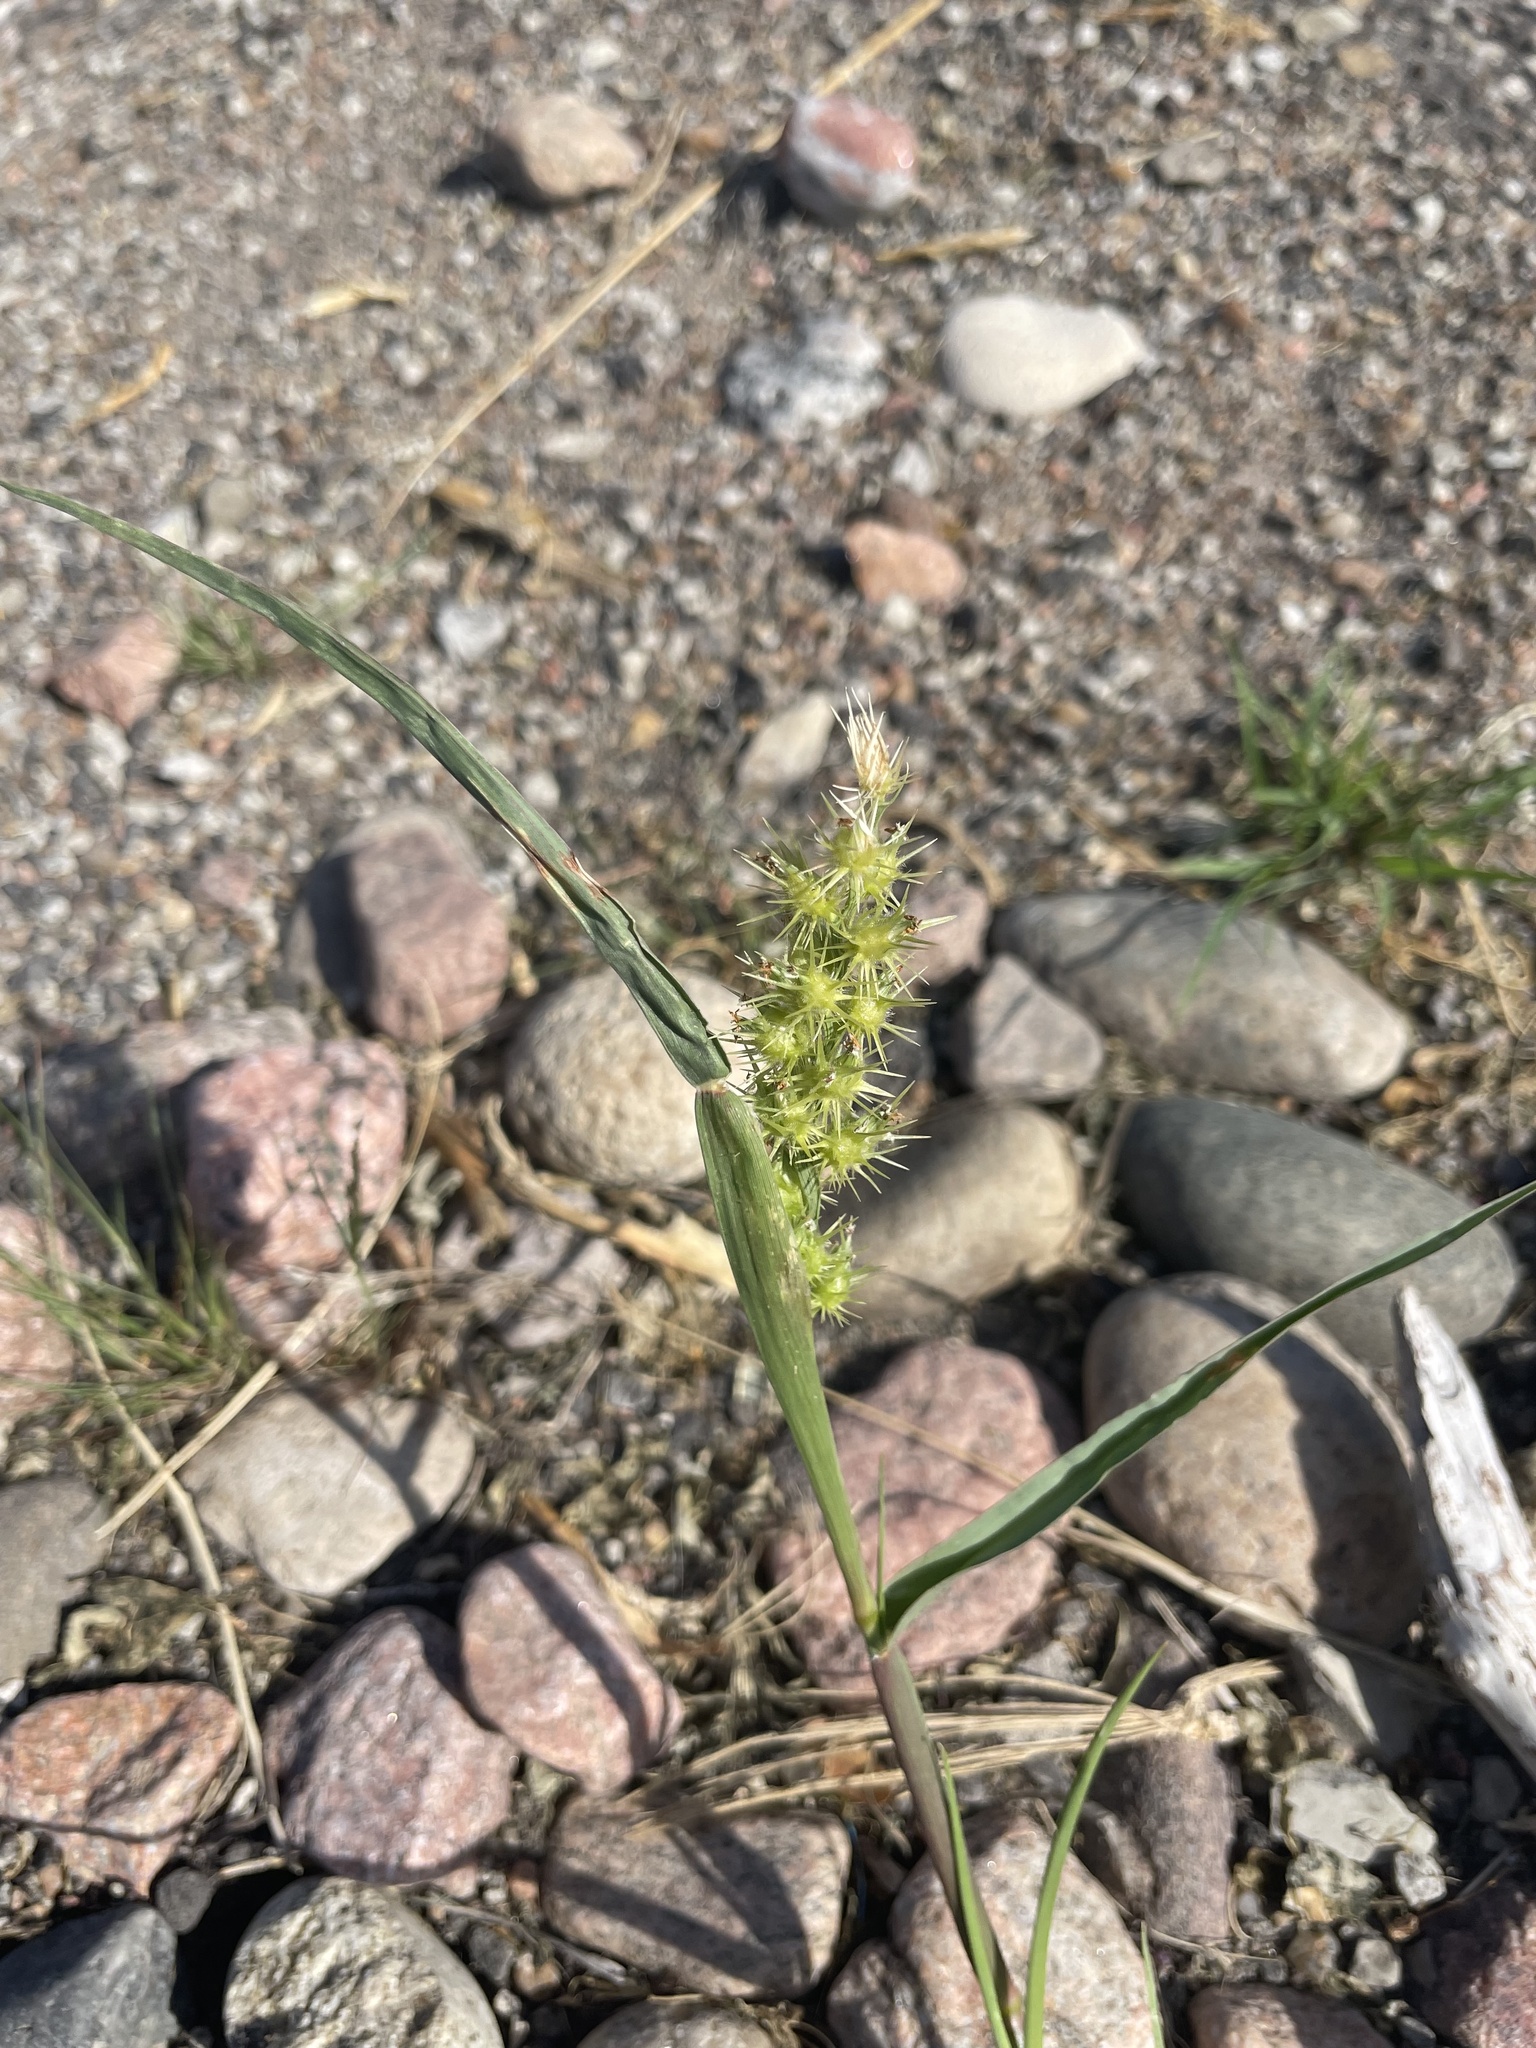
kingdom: Plantae
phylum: Tracheophyta
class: Liliopsida
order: Poales
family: Poaceae
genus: Cenchrus
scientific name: Cenchrus longispinus
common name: Mat sandbur
